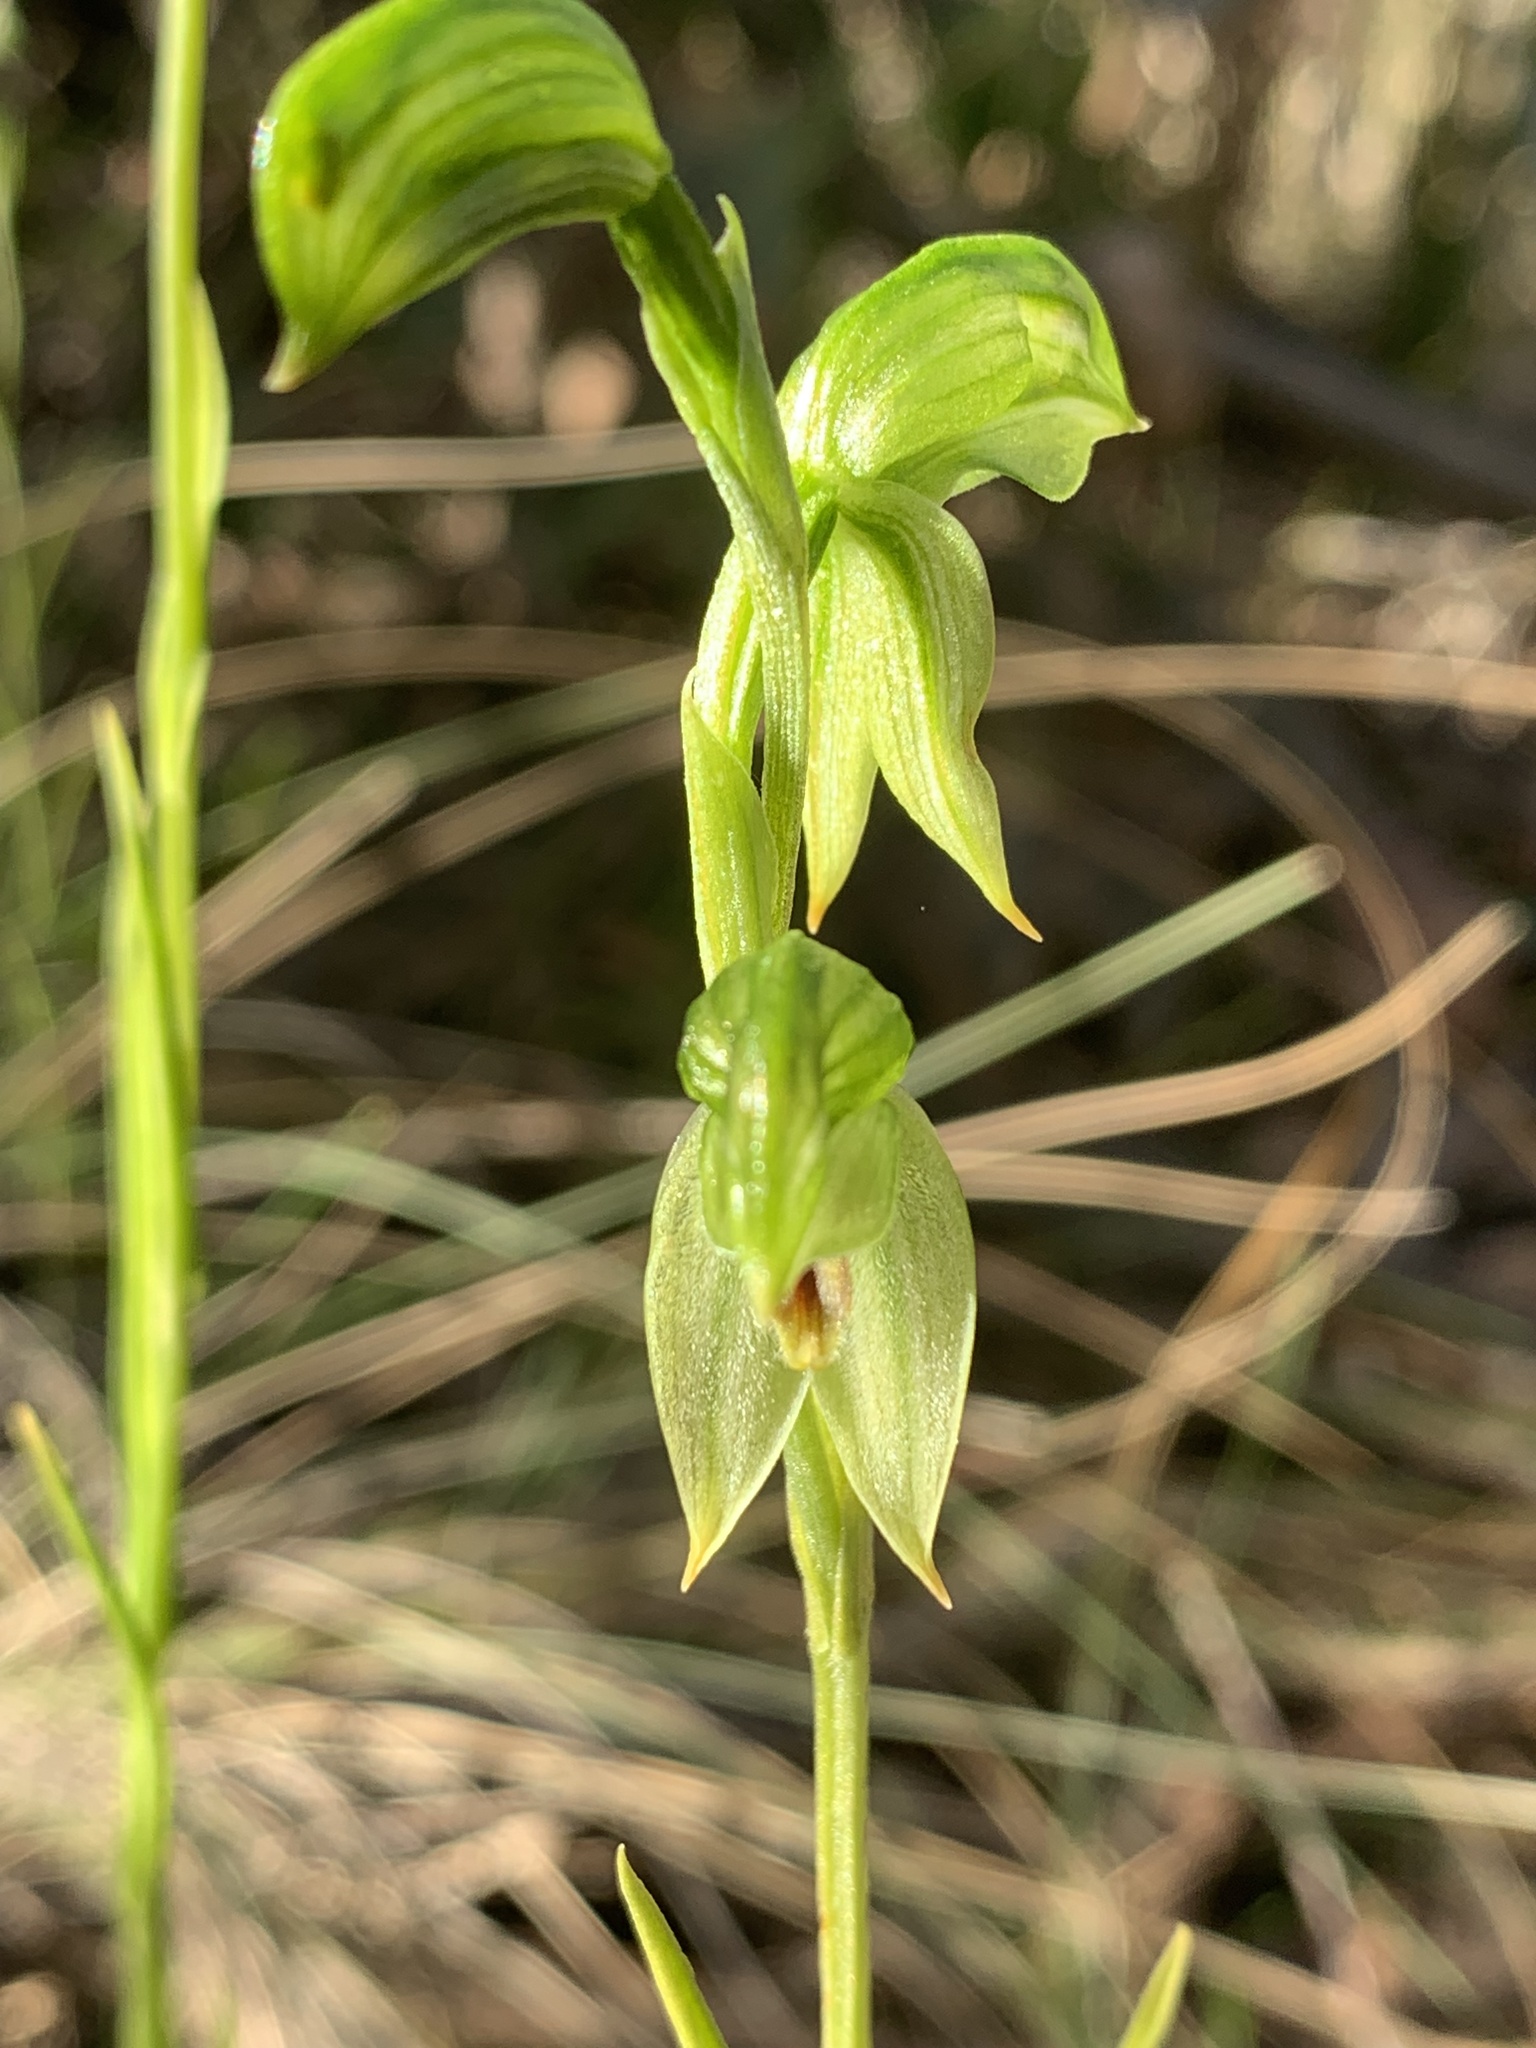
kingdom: Plantae
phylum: Tracheophyta
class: Liliopsida
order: Asparagales
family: Orchidaceae
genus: Pterostylis
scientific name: Pterostylis tenuis
